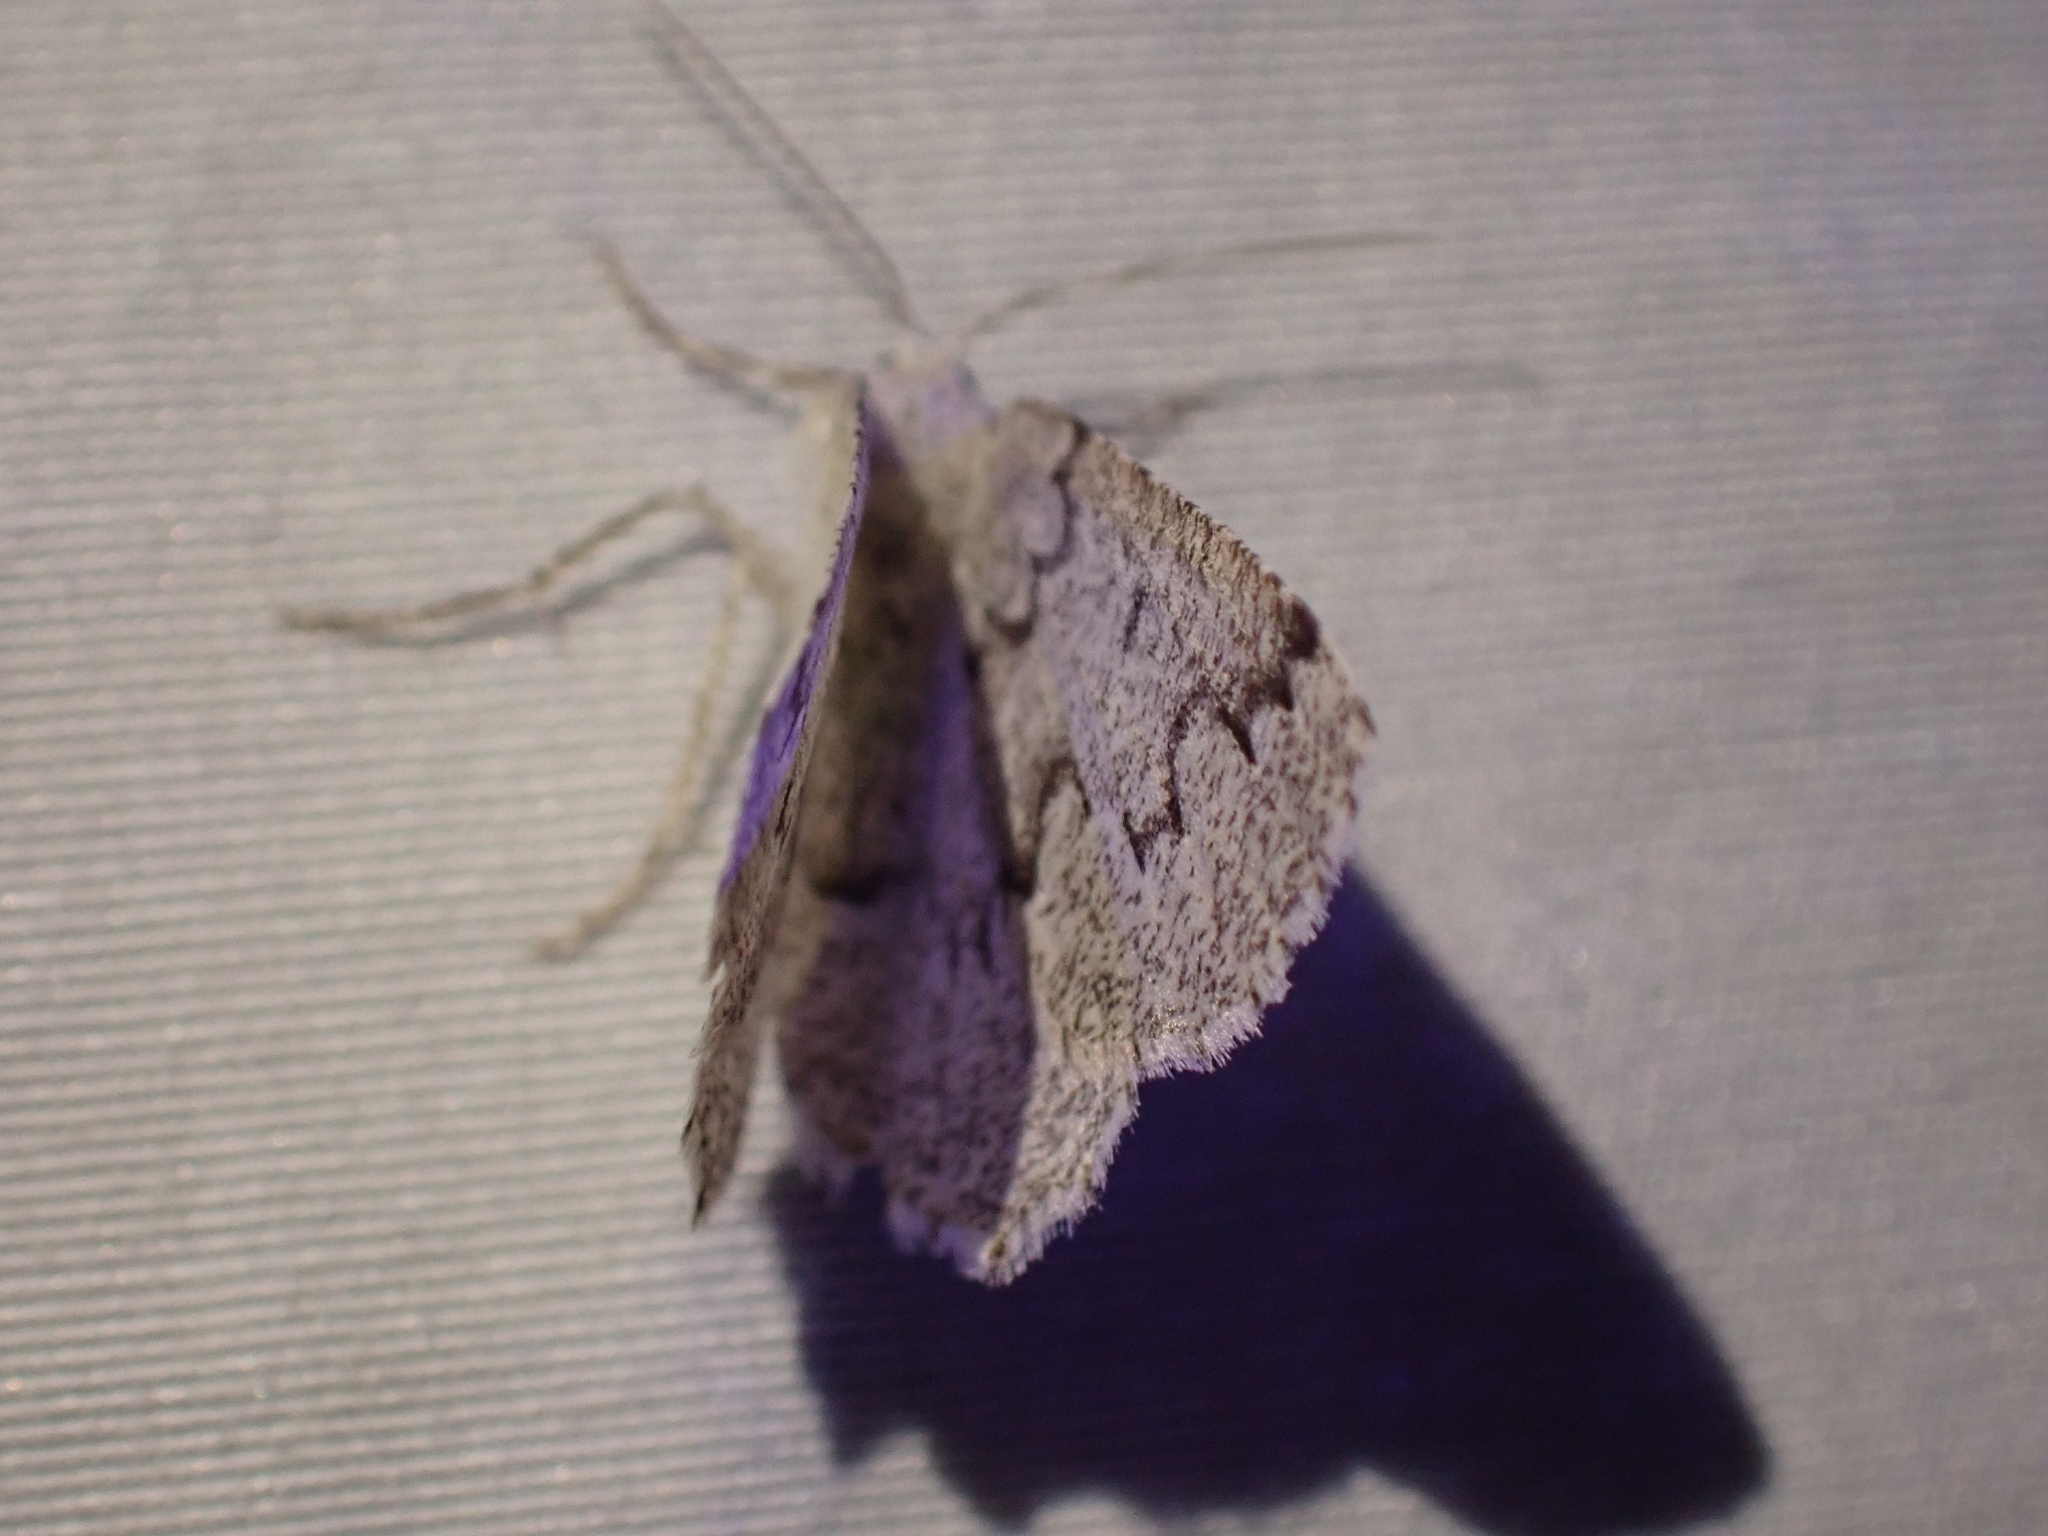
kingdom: Animalia
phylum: Arthropoda
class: Insecta
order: Lepidoptera
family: Geometridae
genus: Sabulodes
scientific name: Sabulodes
